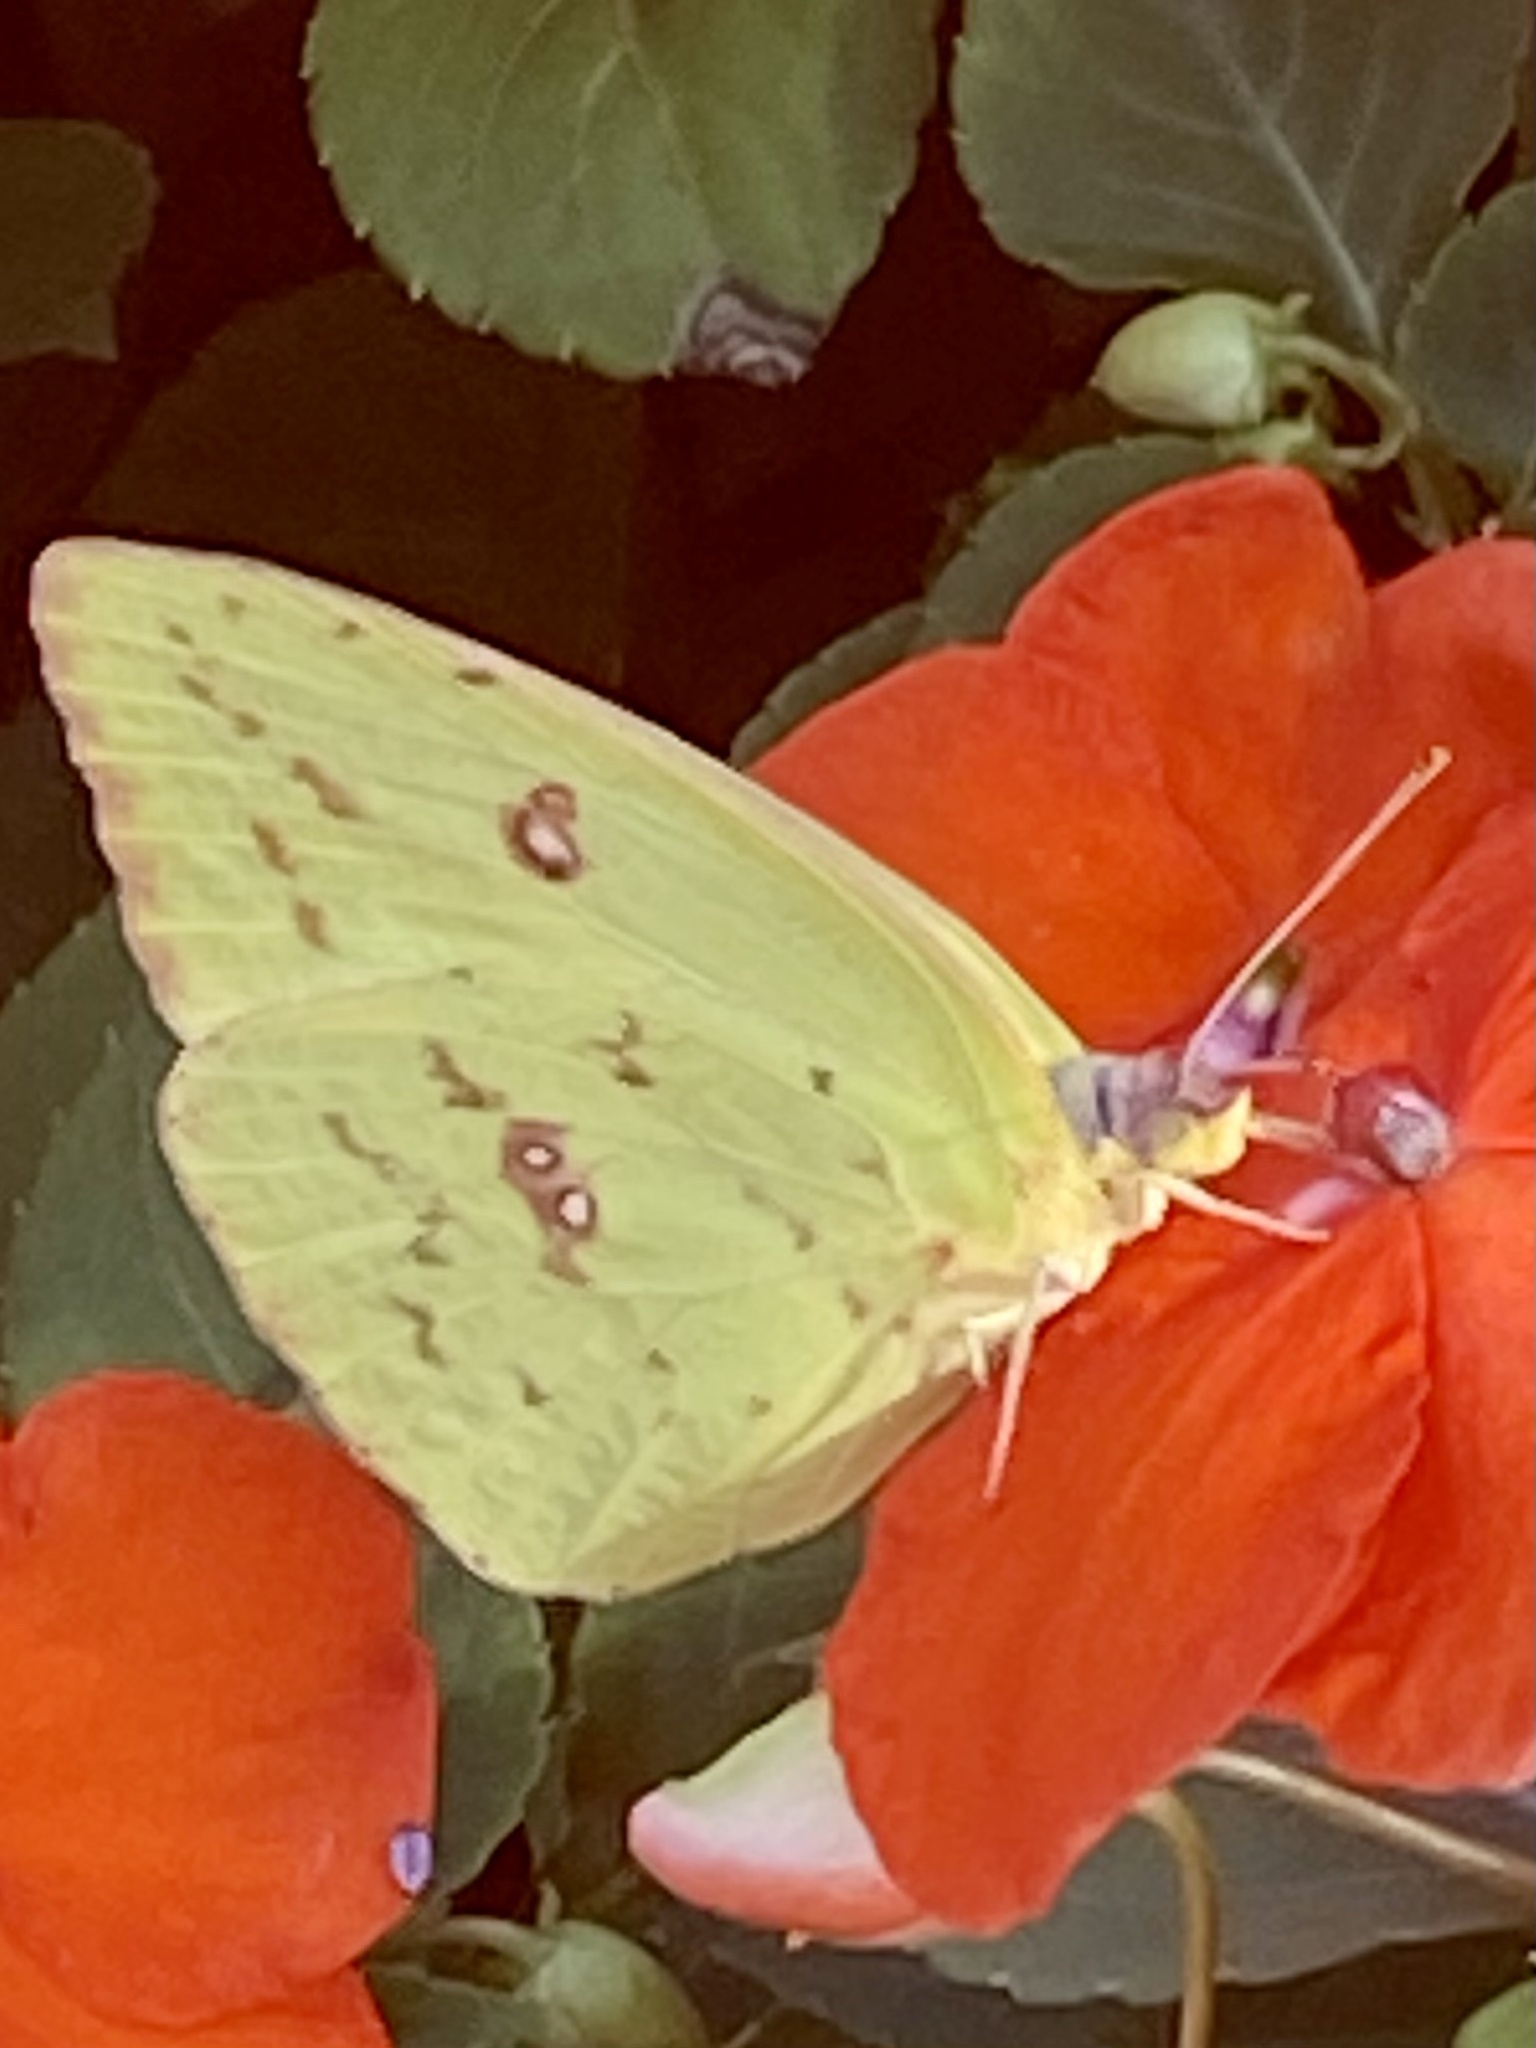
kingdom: Animalia
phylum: Arthropoda
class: Insecta
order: Lepidoptera
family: Pieridae
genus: Phoebis
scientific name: Phoebis sennae
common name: Cloudless sulphur
